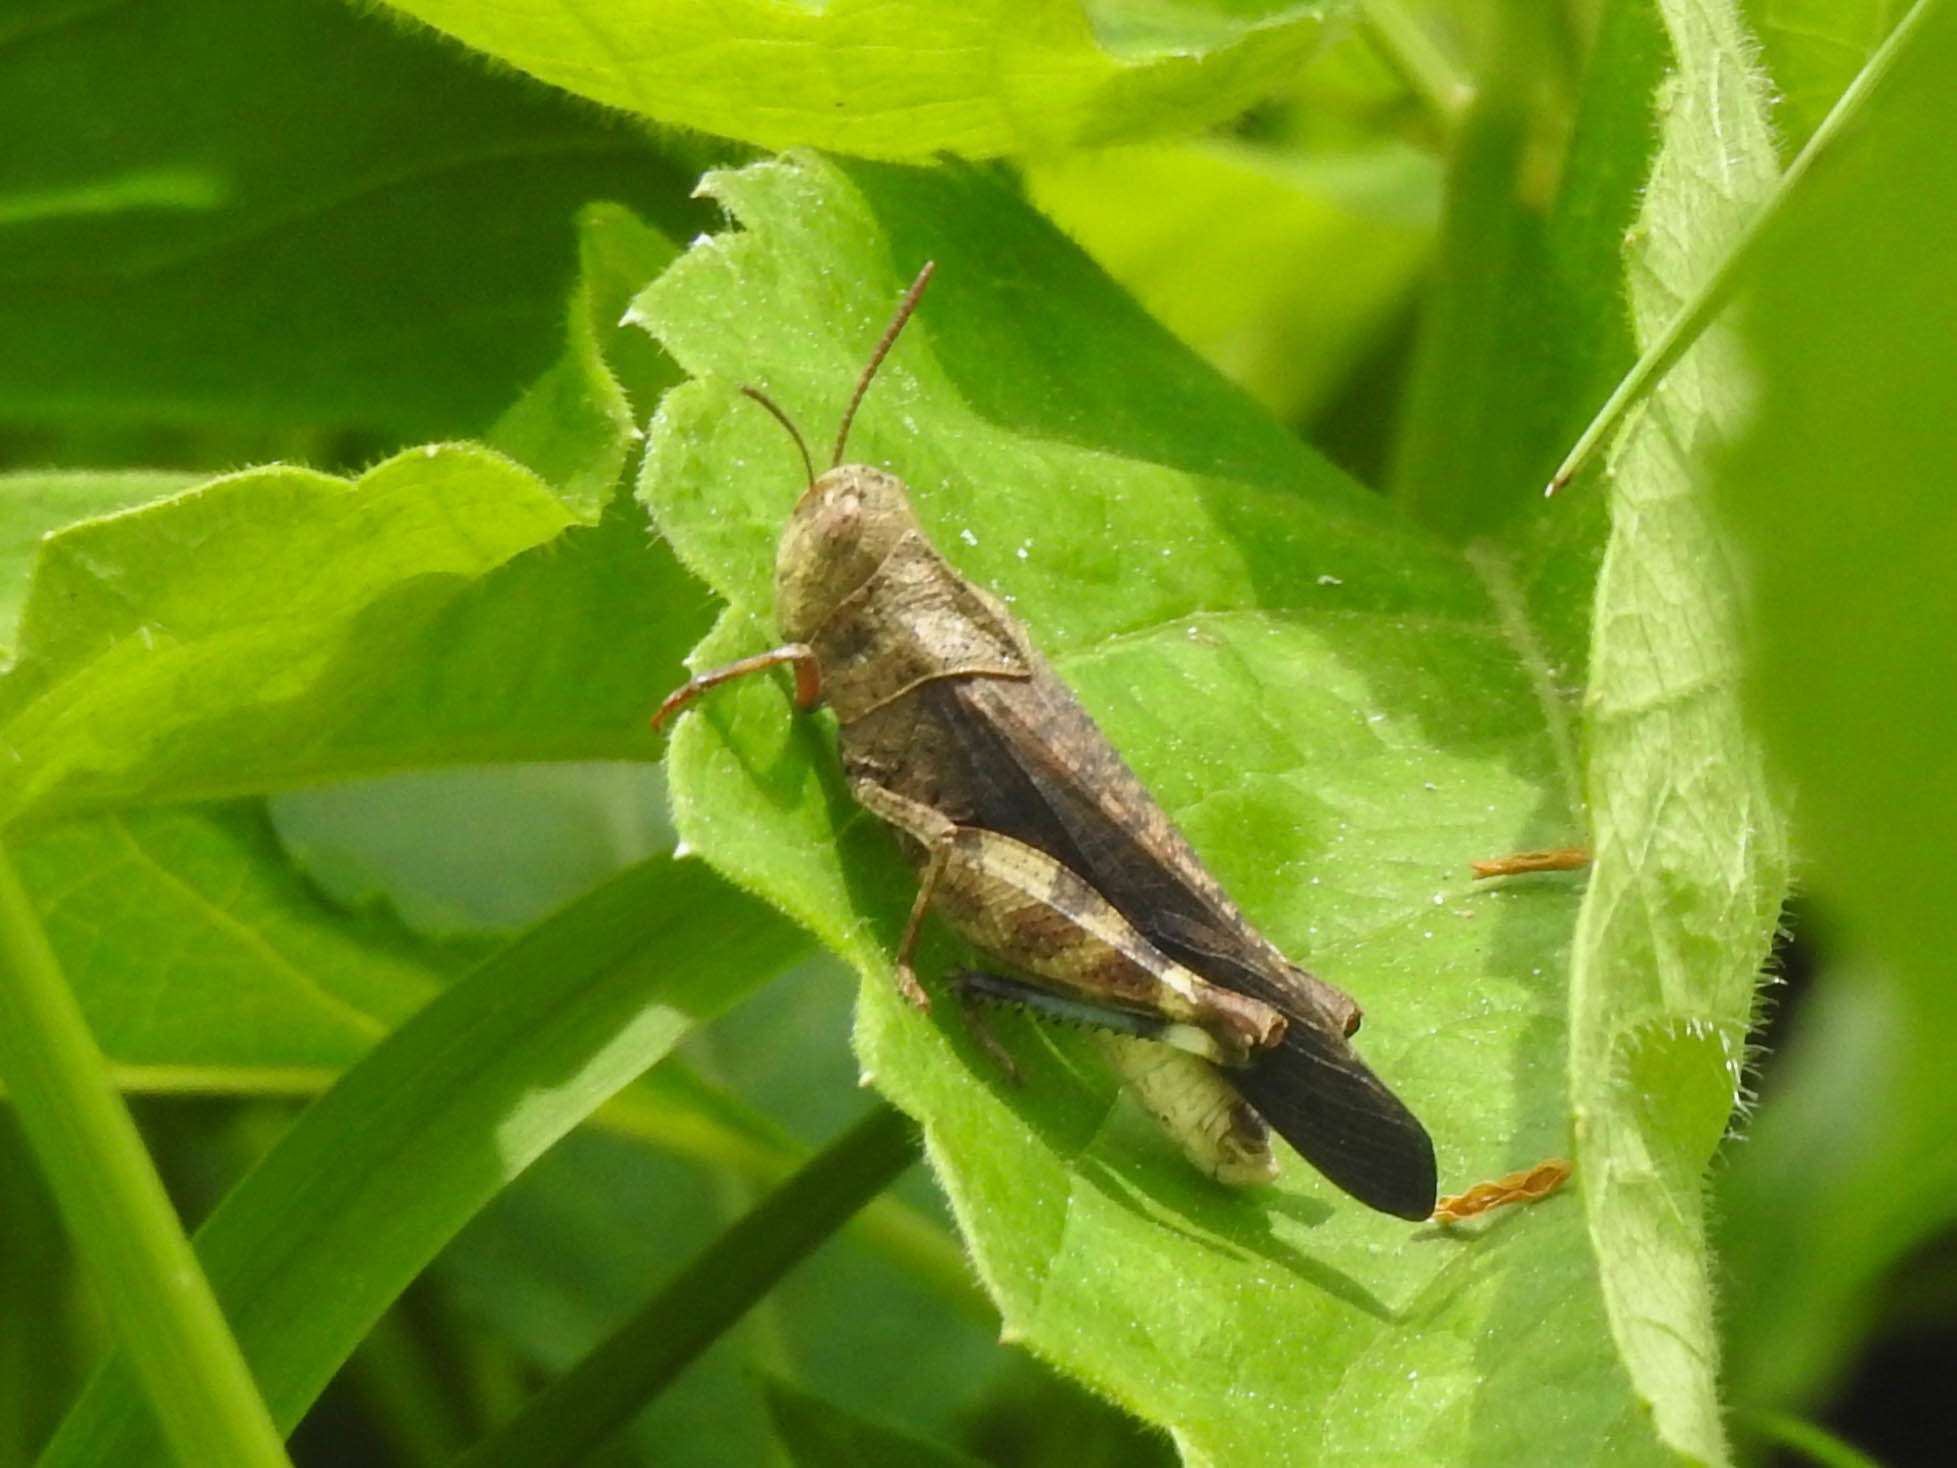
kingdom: Animalia
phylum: Arthropoda
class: Insecta
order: Orthoptera
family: Acrididae
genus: Arphia
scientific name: Arphia sulphurea
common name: Spring yellow-winged locust
